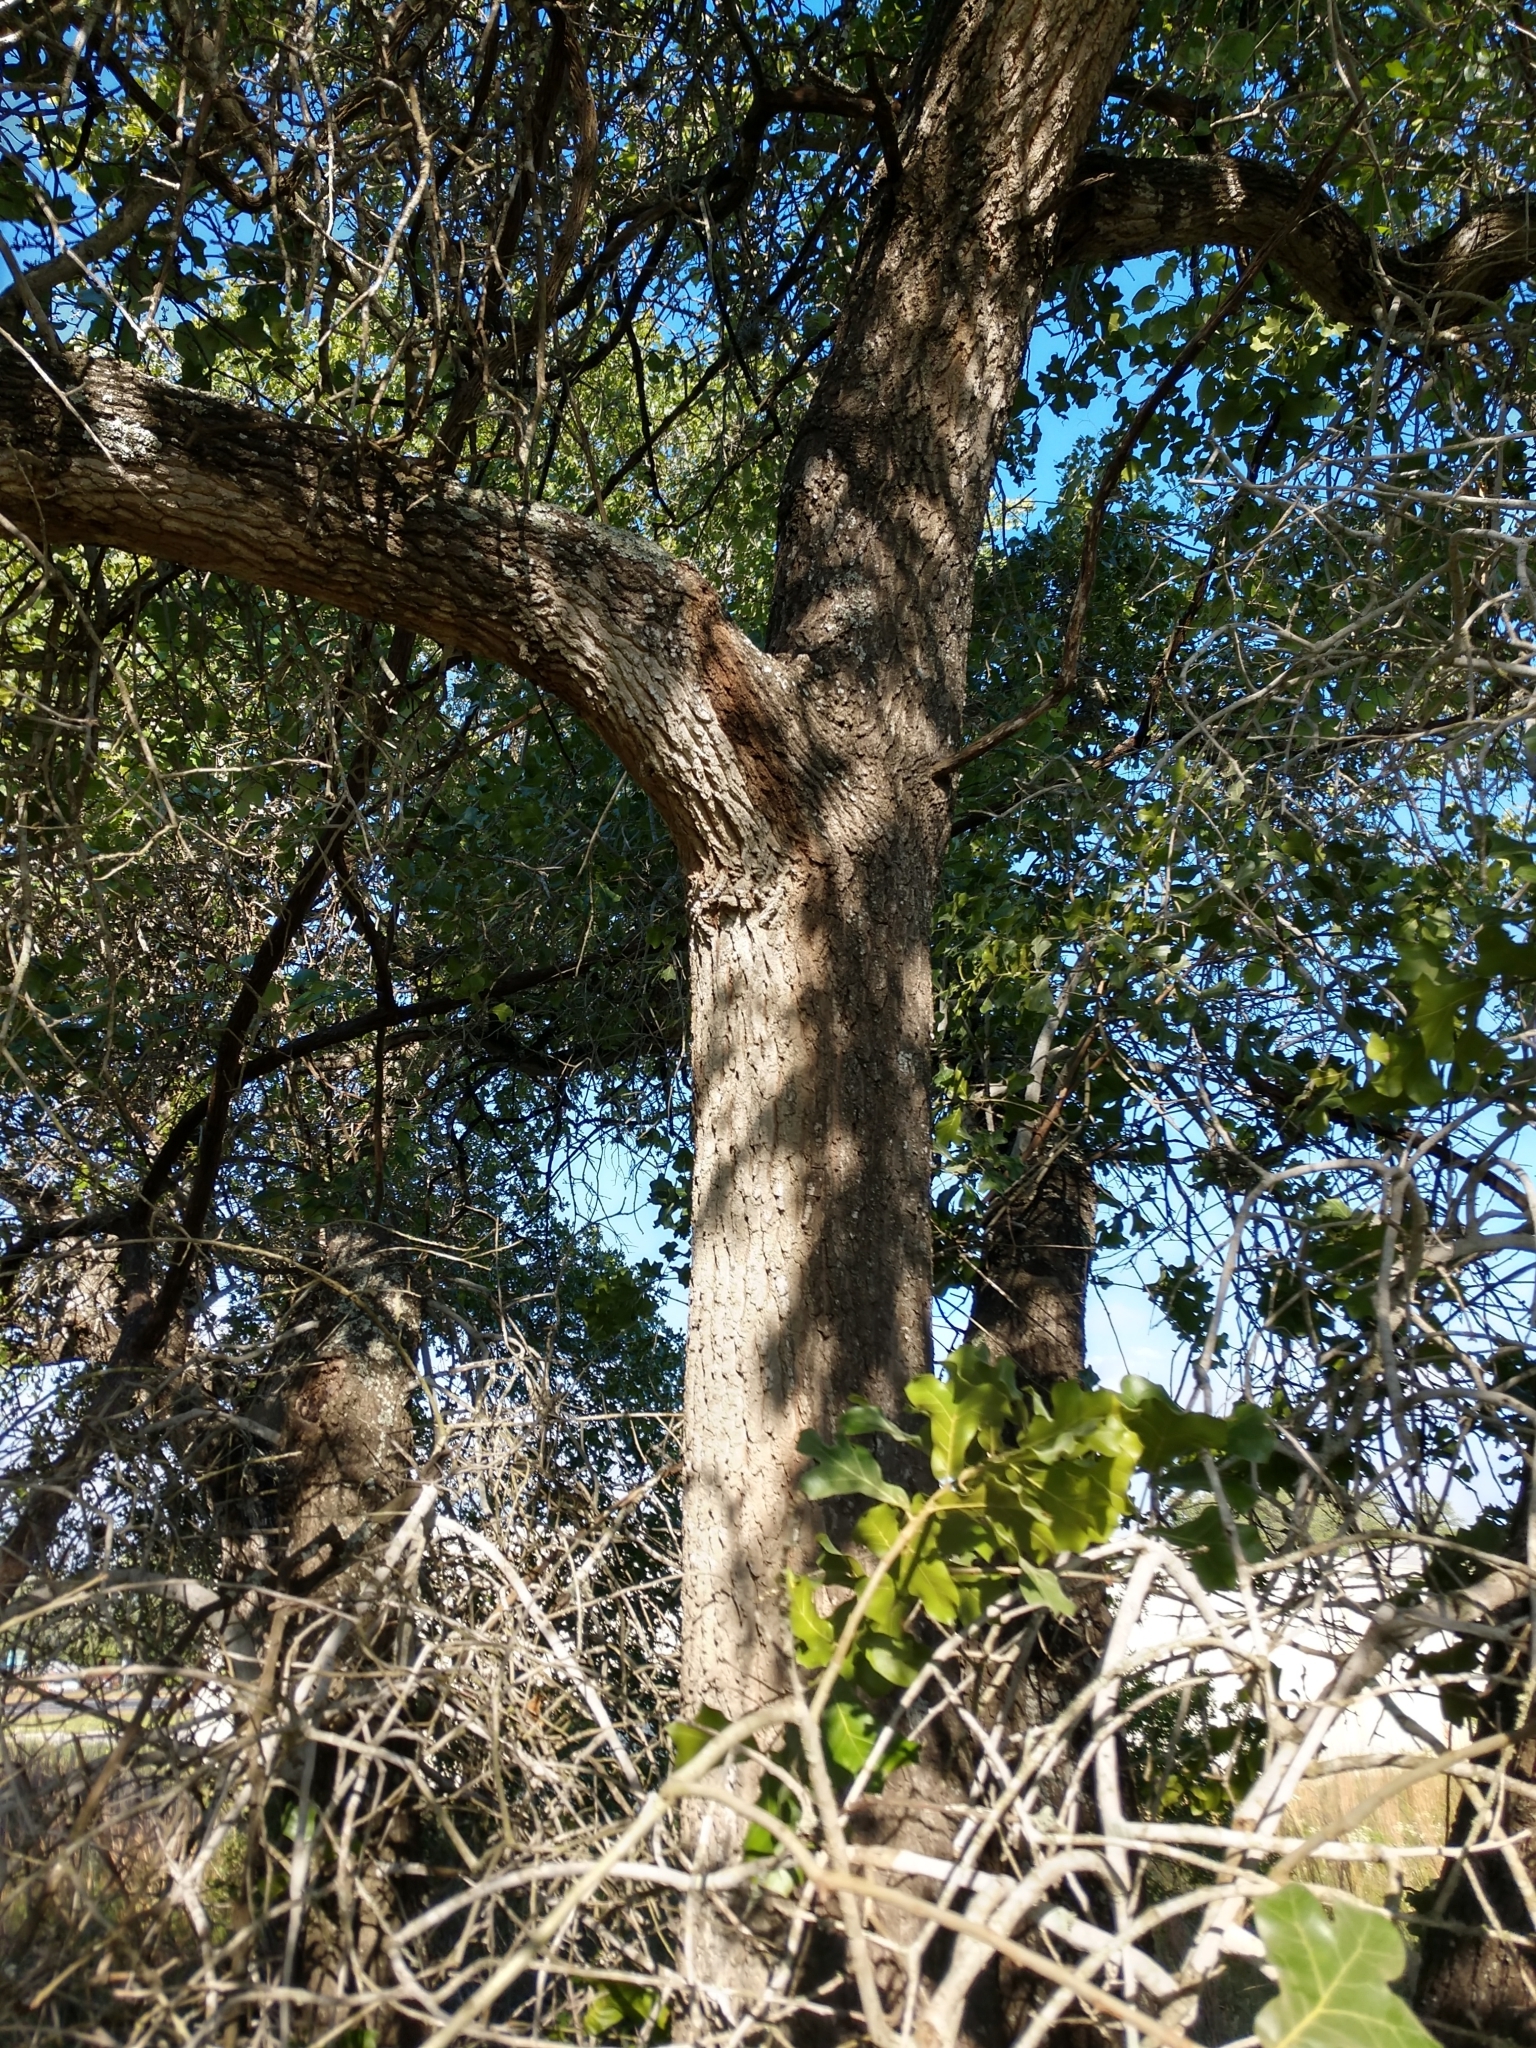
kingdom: Plantae
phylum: Tracheophyta
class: Magnoliopsida
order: Fagales
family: Fagaceae
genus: Quercus
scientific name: Quercus marilandica
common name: Blackjack oak
